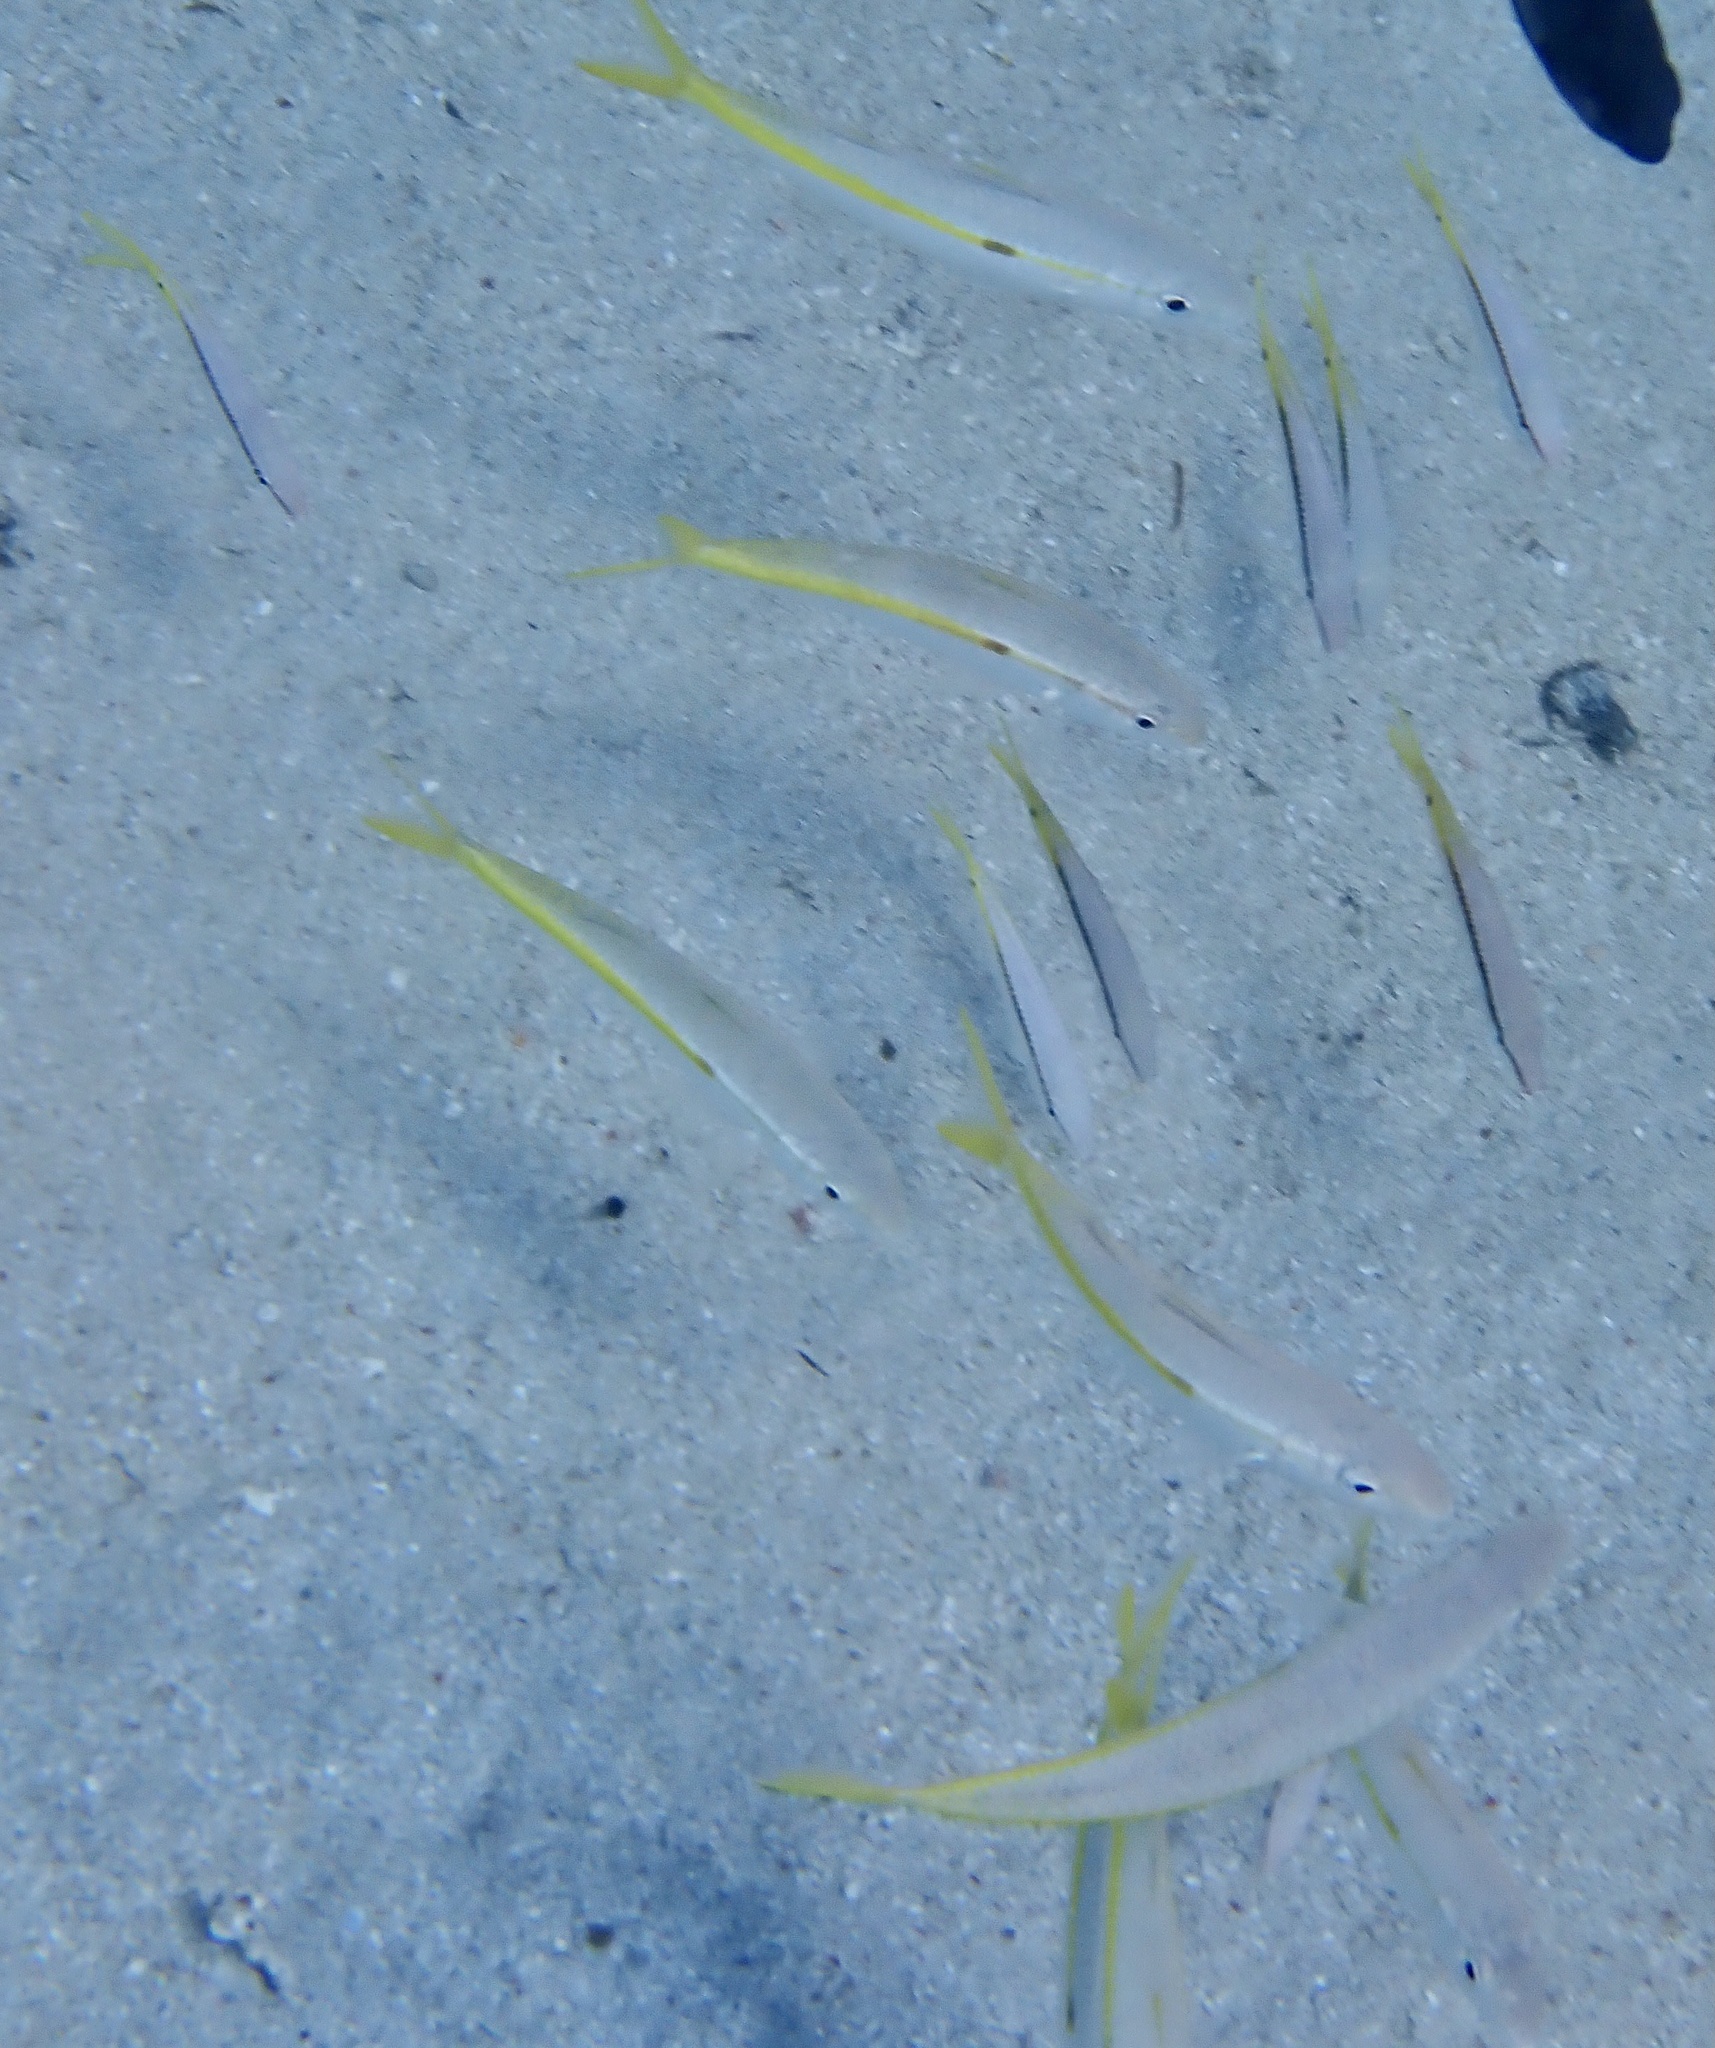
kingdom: Animalia
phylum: Chordata
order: Perciformes
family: Mullidae
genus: Mulloidichthys
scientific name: Mulloidichthys flavolineatus
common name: Yellowstripe goatfish
